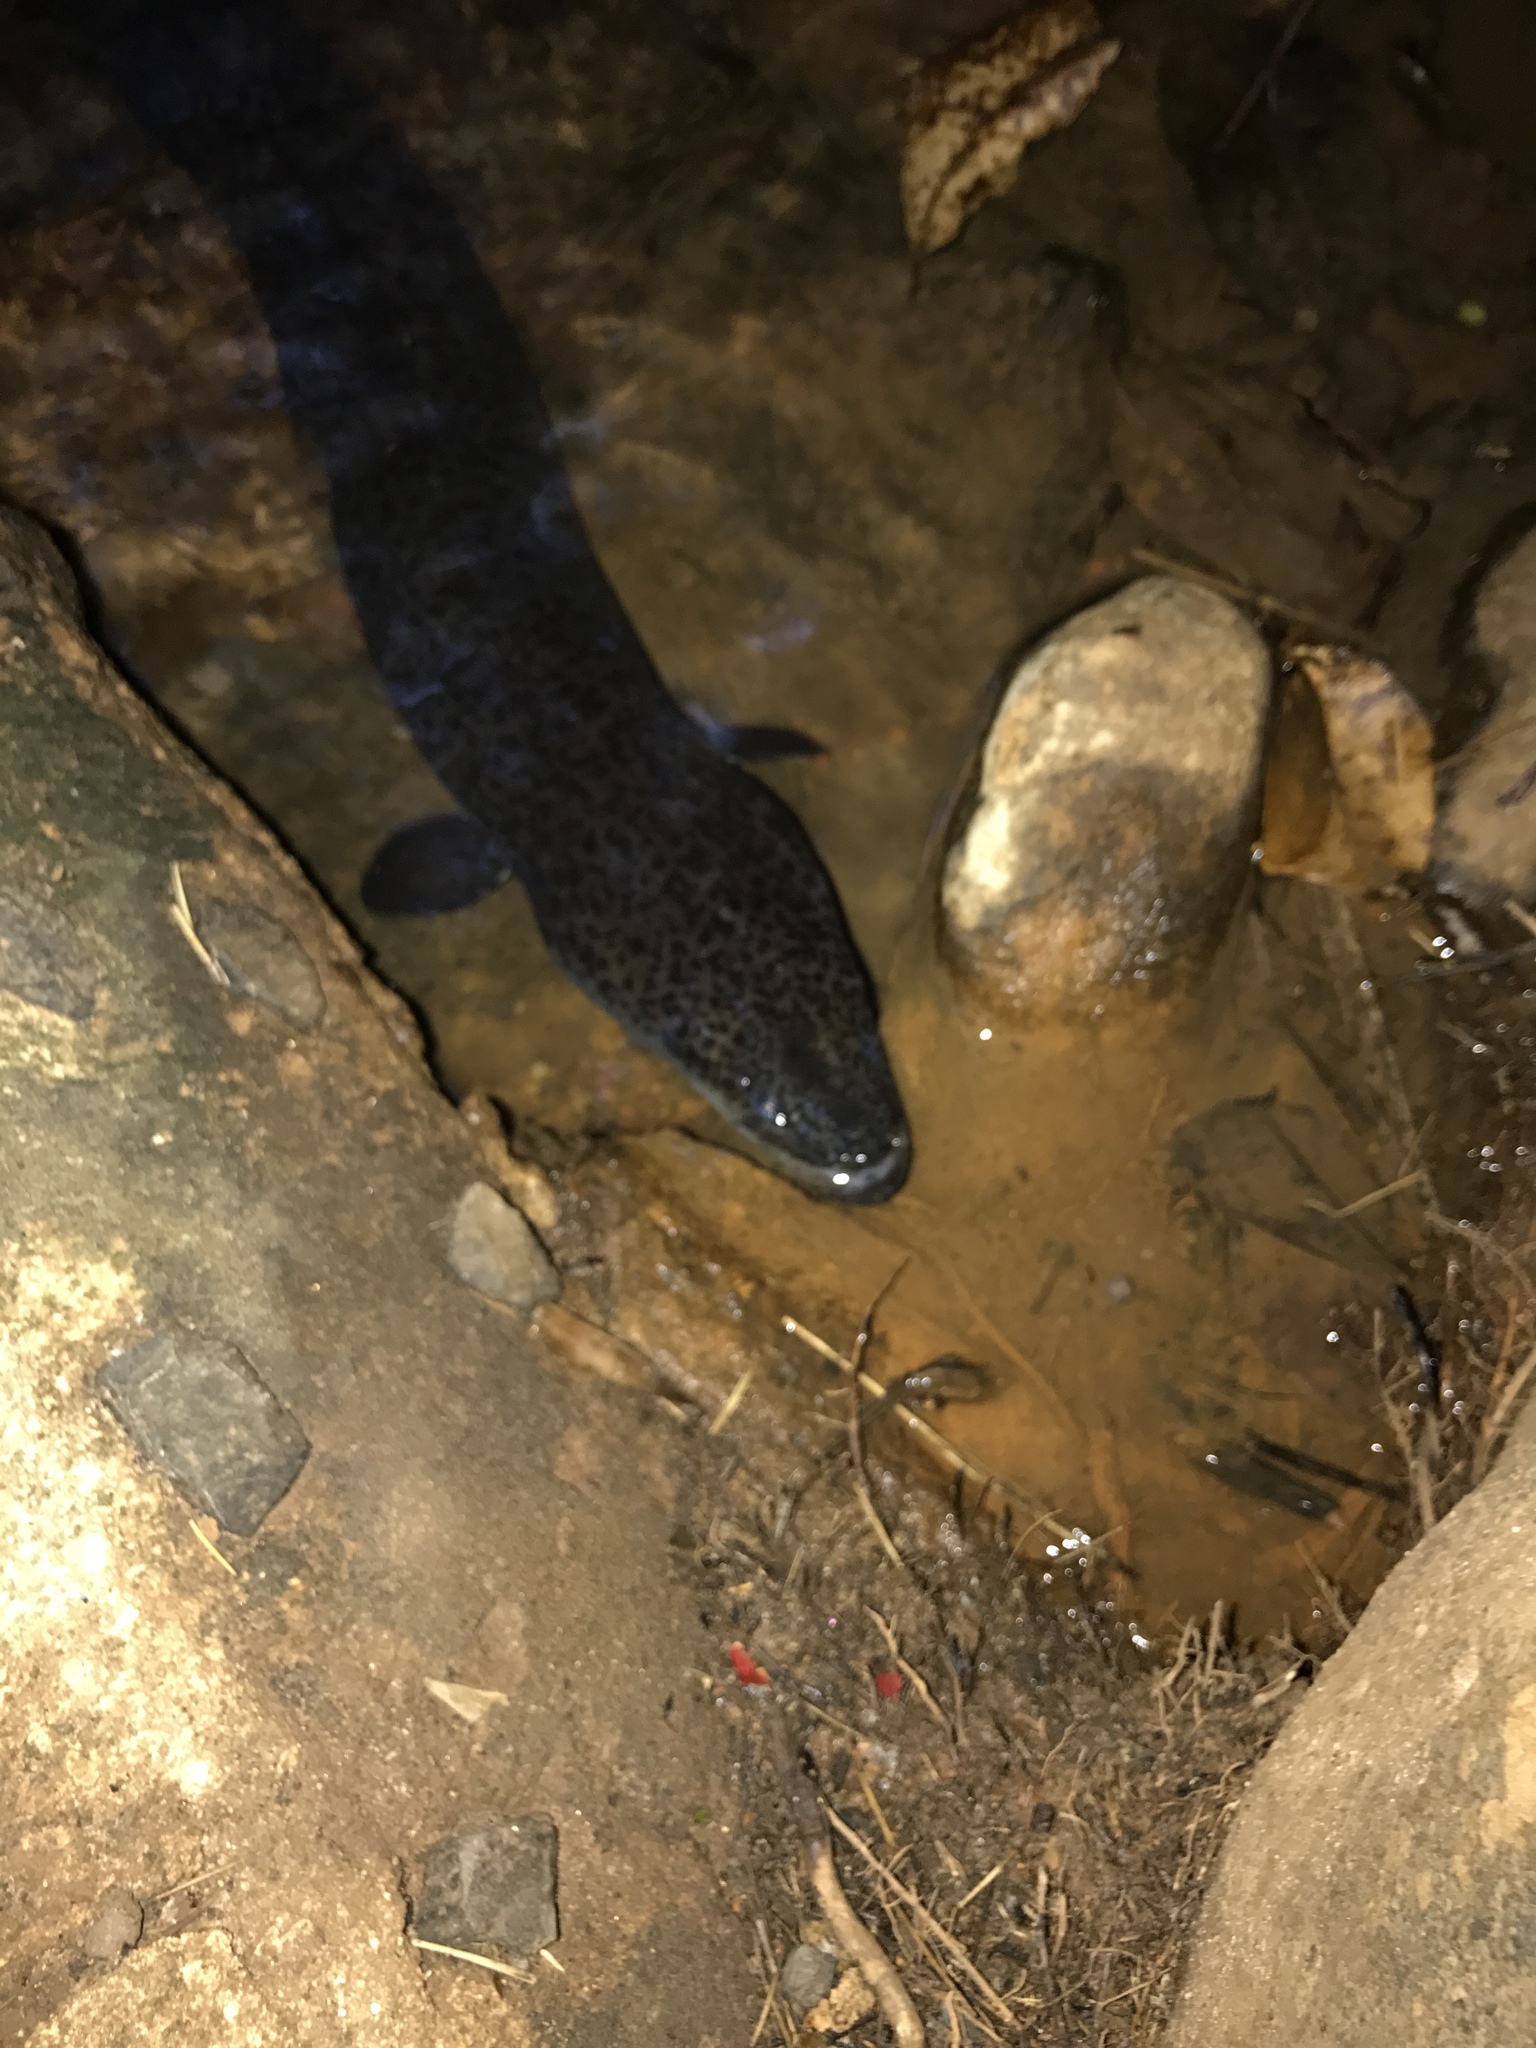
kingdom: Animalia
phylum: Chordata
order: Anguilliformes
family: Anguillidae
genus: Anguilla
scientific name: Anguilla reinhardtii
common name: Longfin eel
